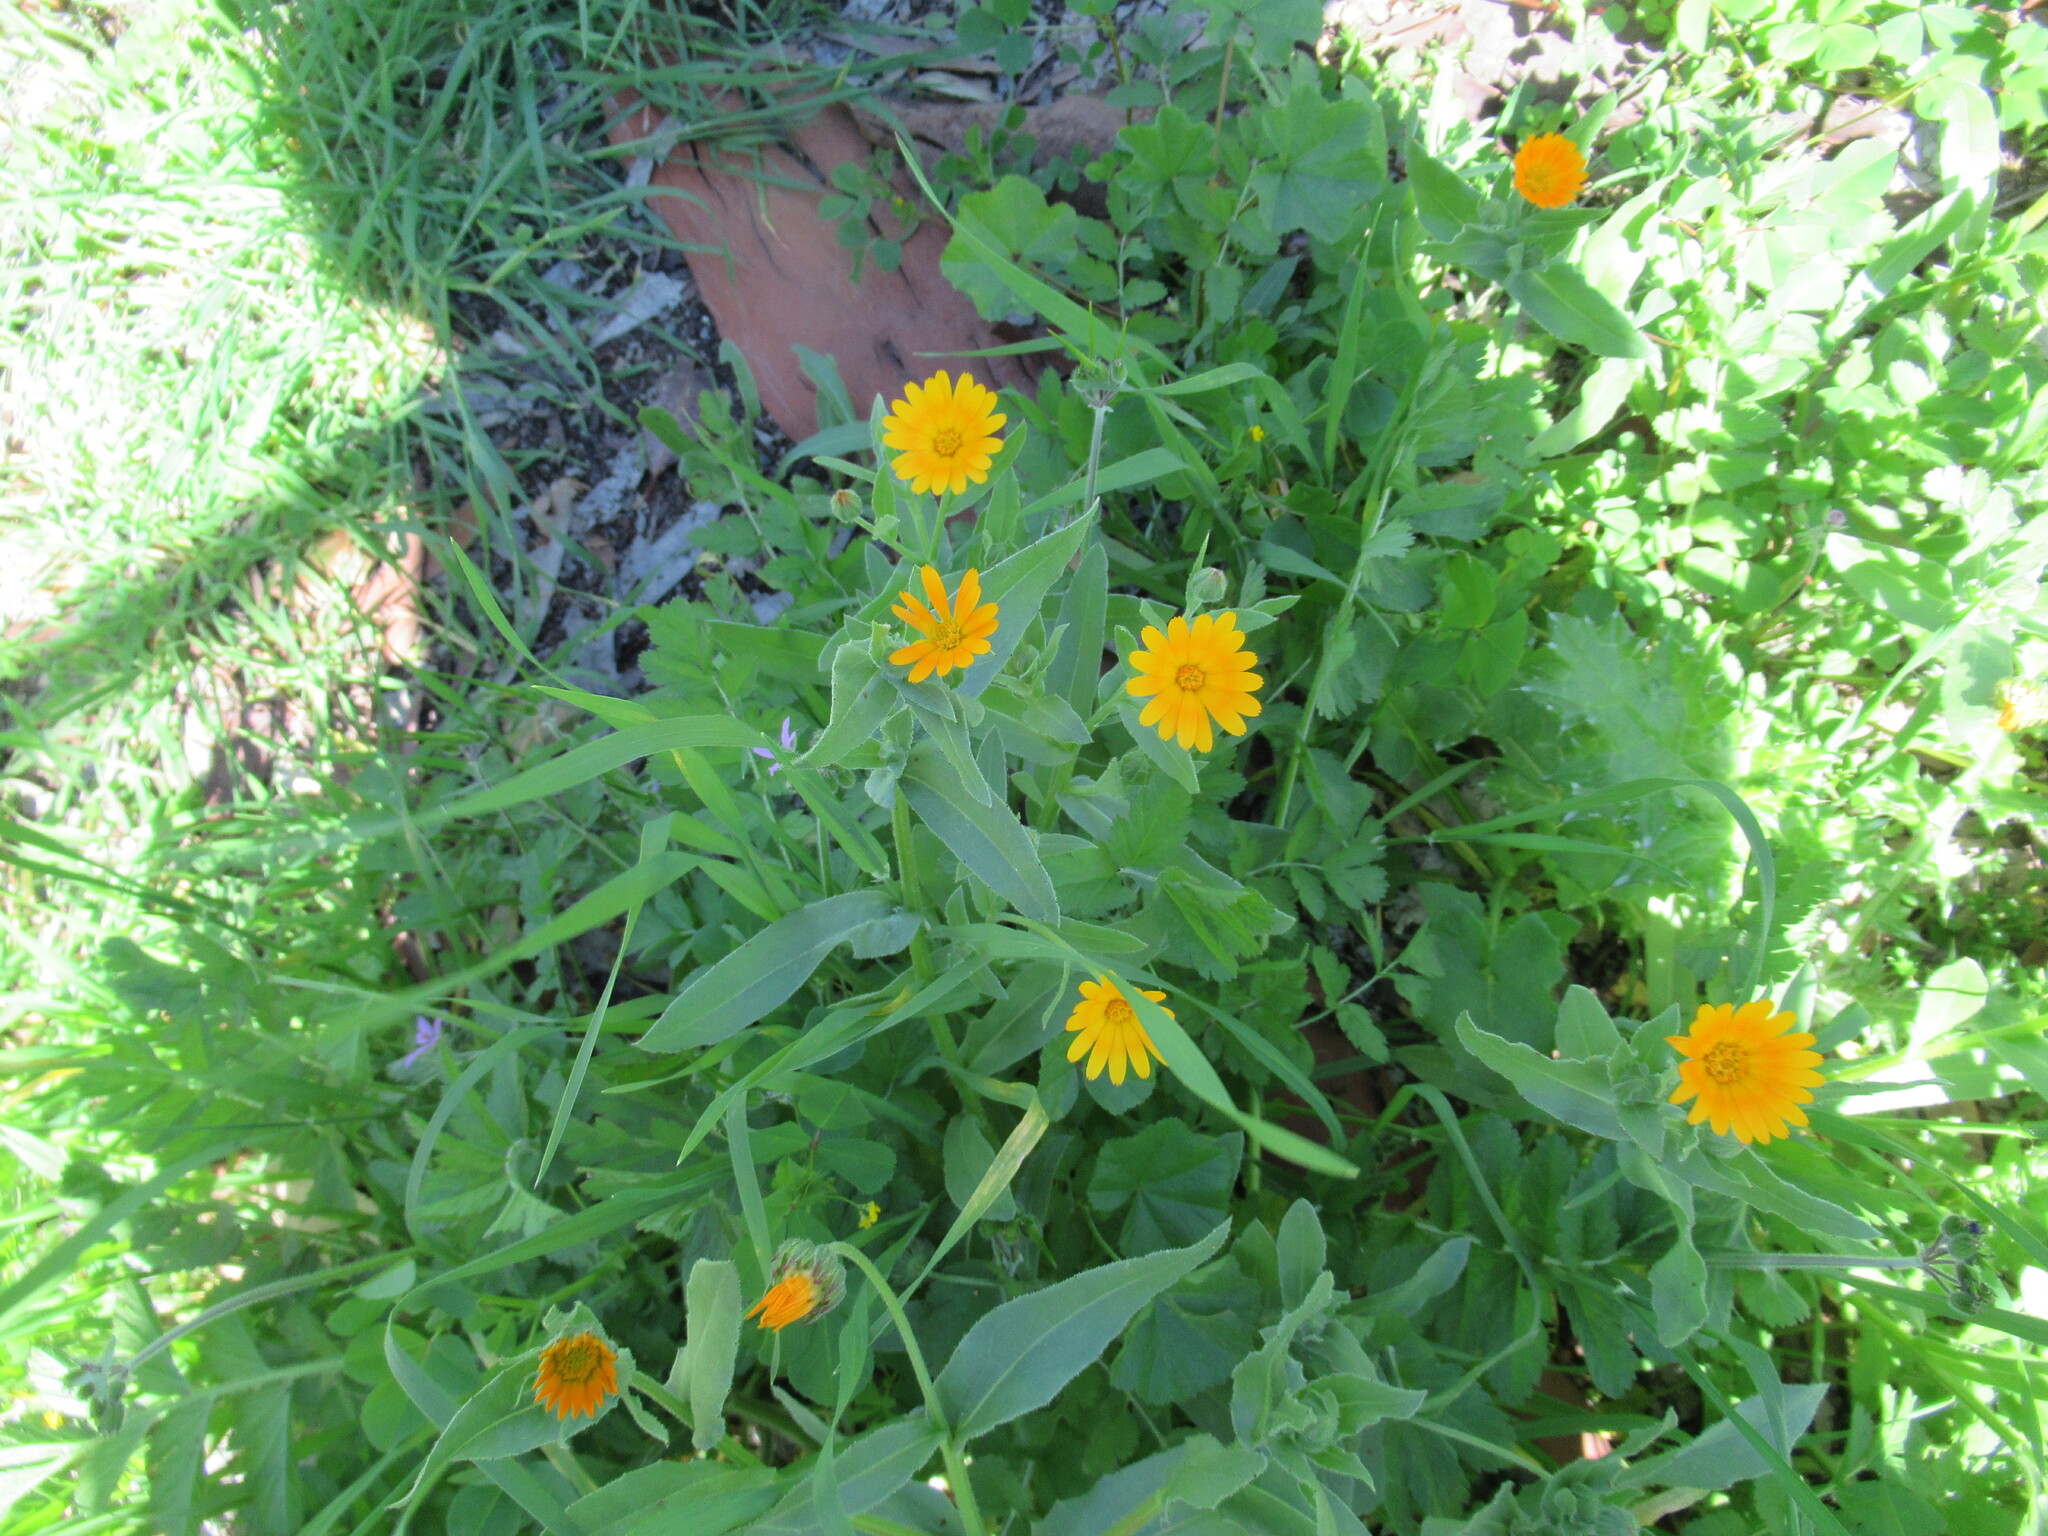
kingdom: Plantae
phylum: Tracheophyta
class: Magnoliopsida
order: Asterales
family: Asteraceae
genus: Calendula
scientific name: Calendula arvensis
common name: Field marigold
